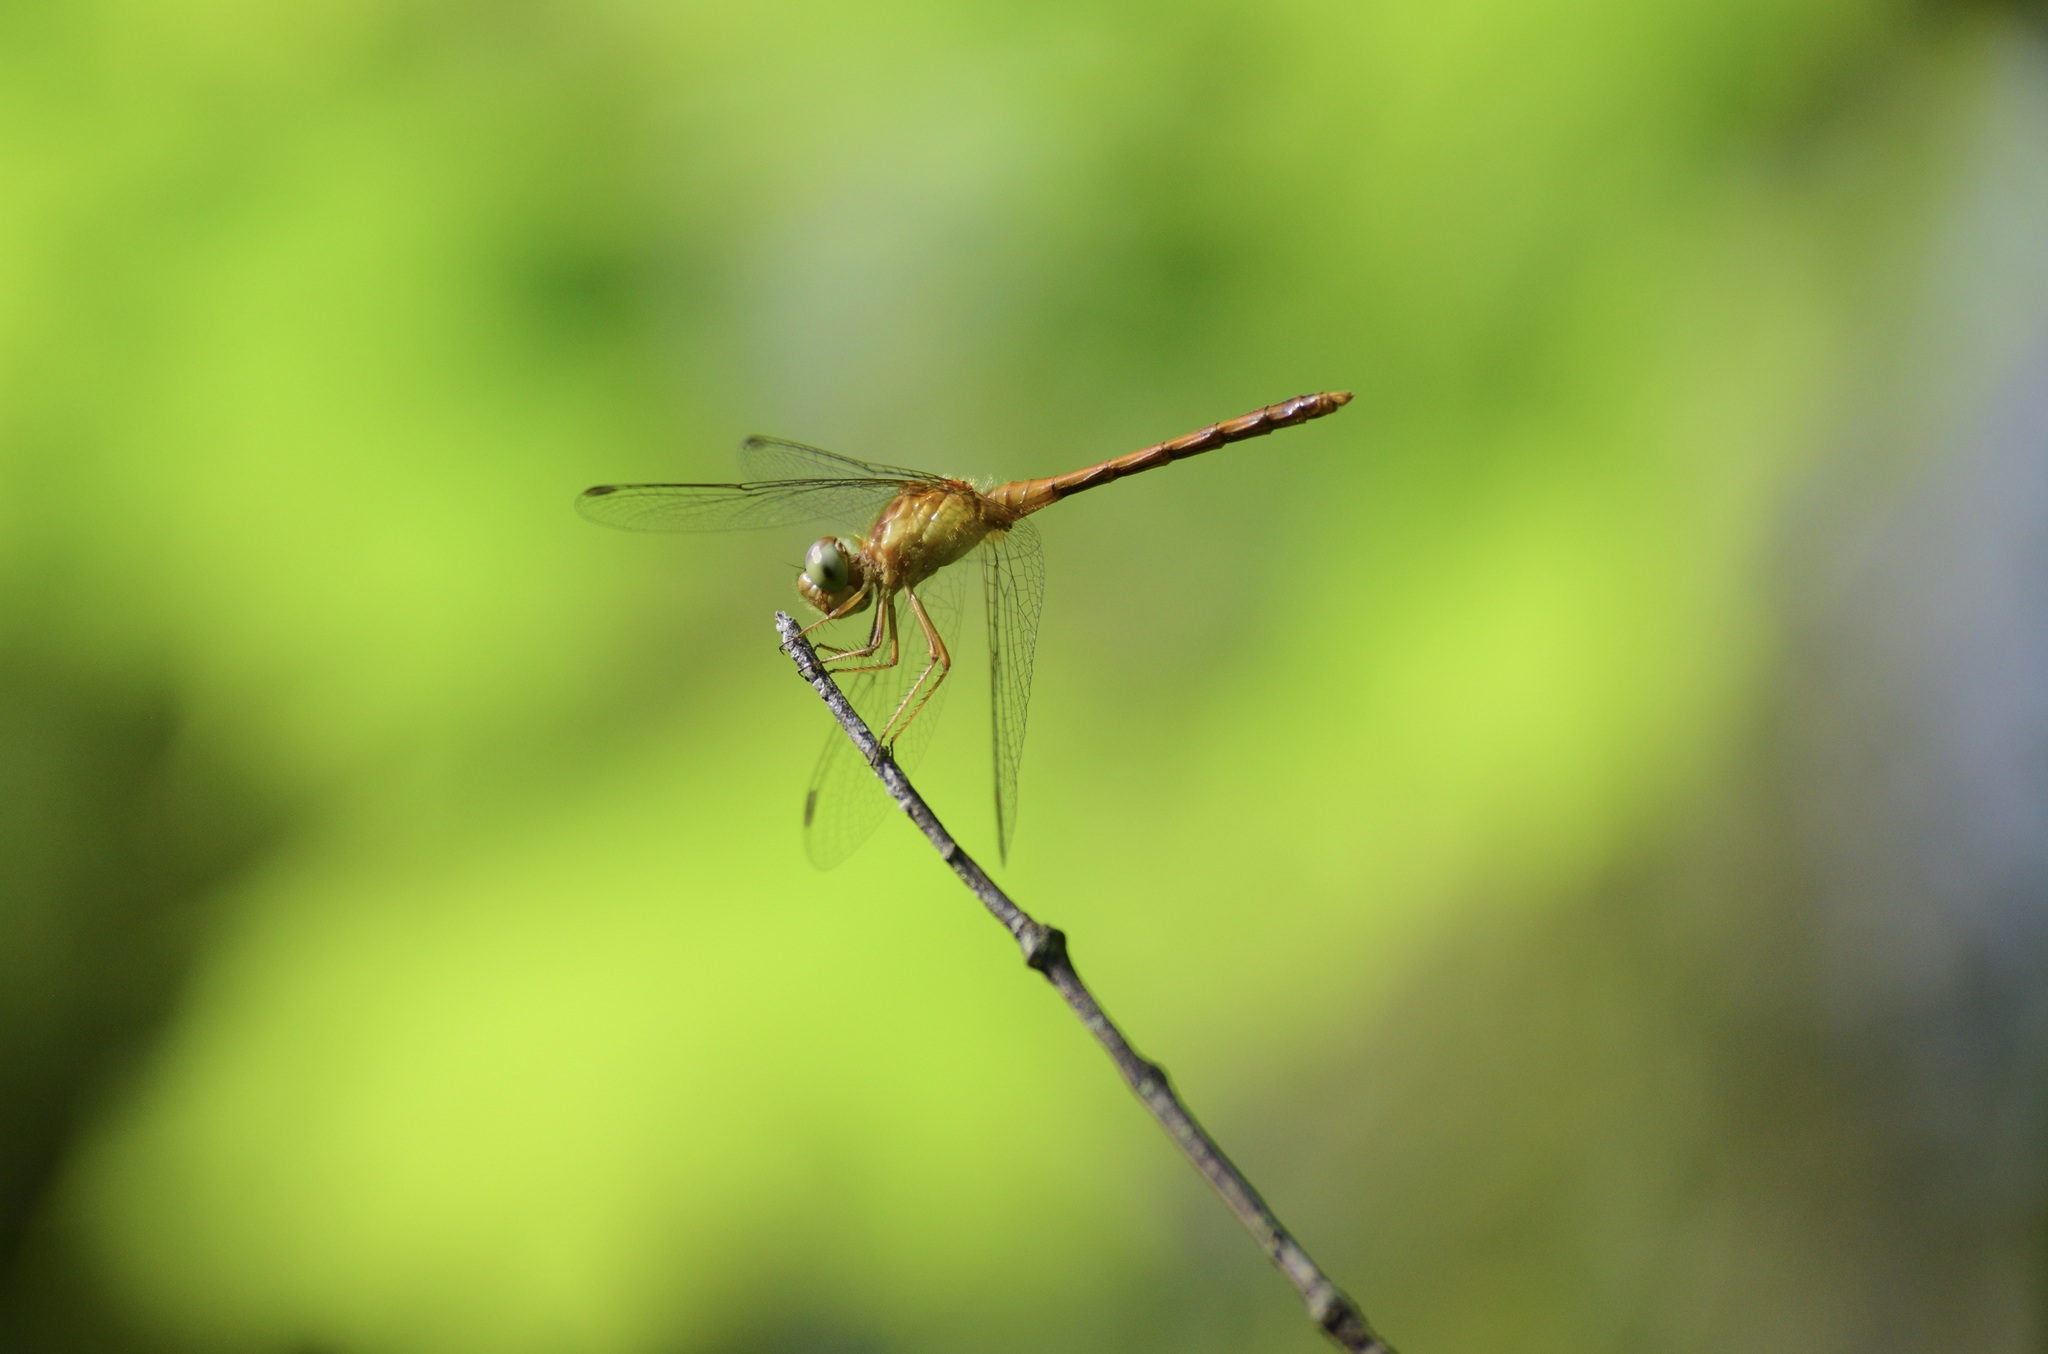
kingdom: Animalia
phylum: Arthropoda
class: Insecta
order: Odonata
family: Libellulidae
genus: Sympetrum
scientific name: Sympetrum vicinum
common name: Autumn meadowhawk
